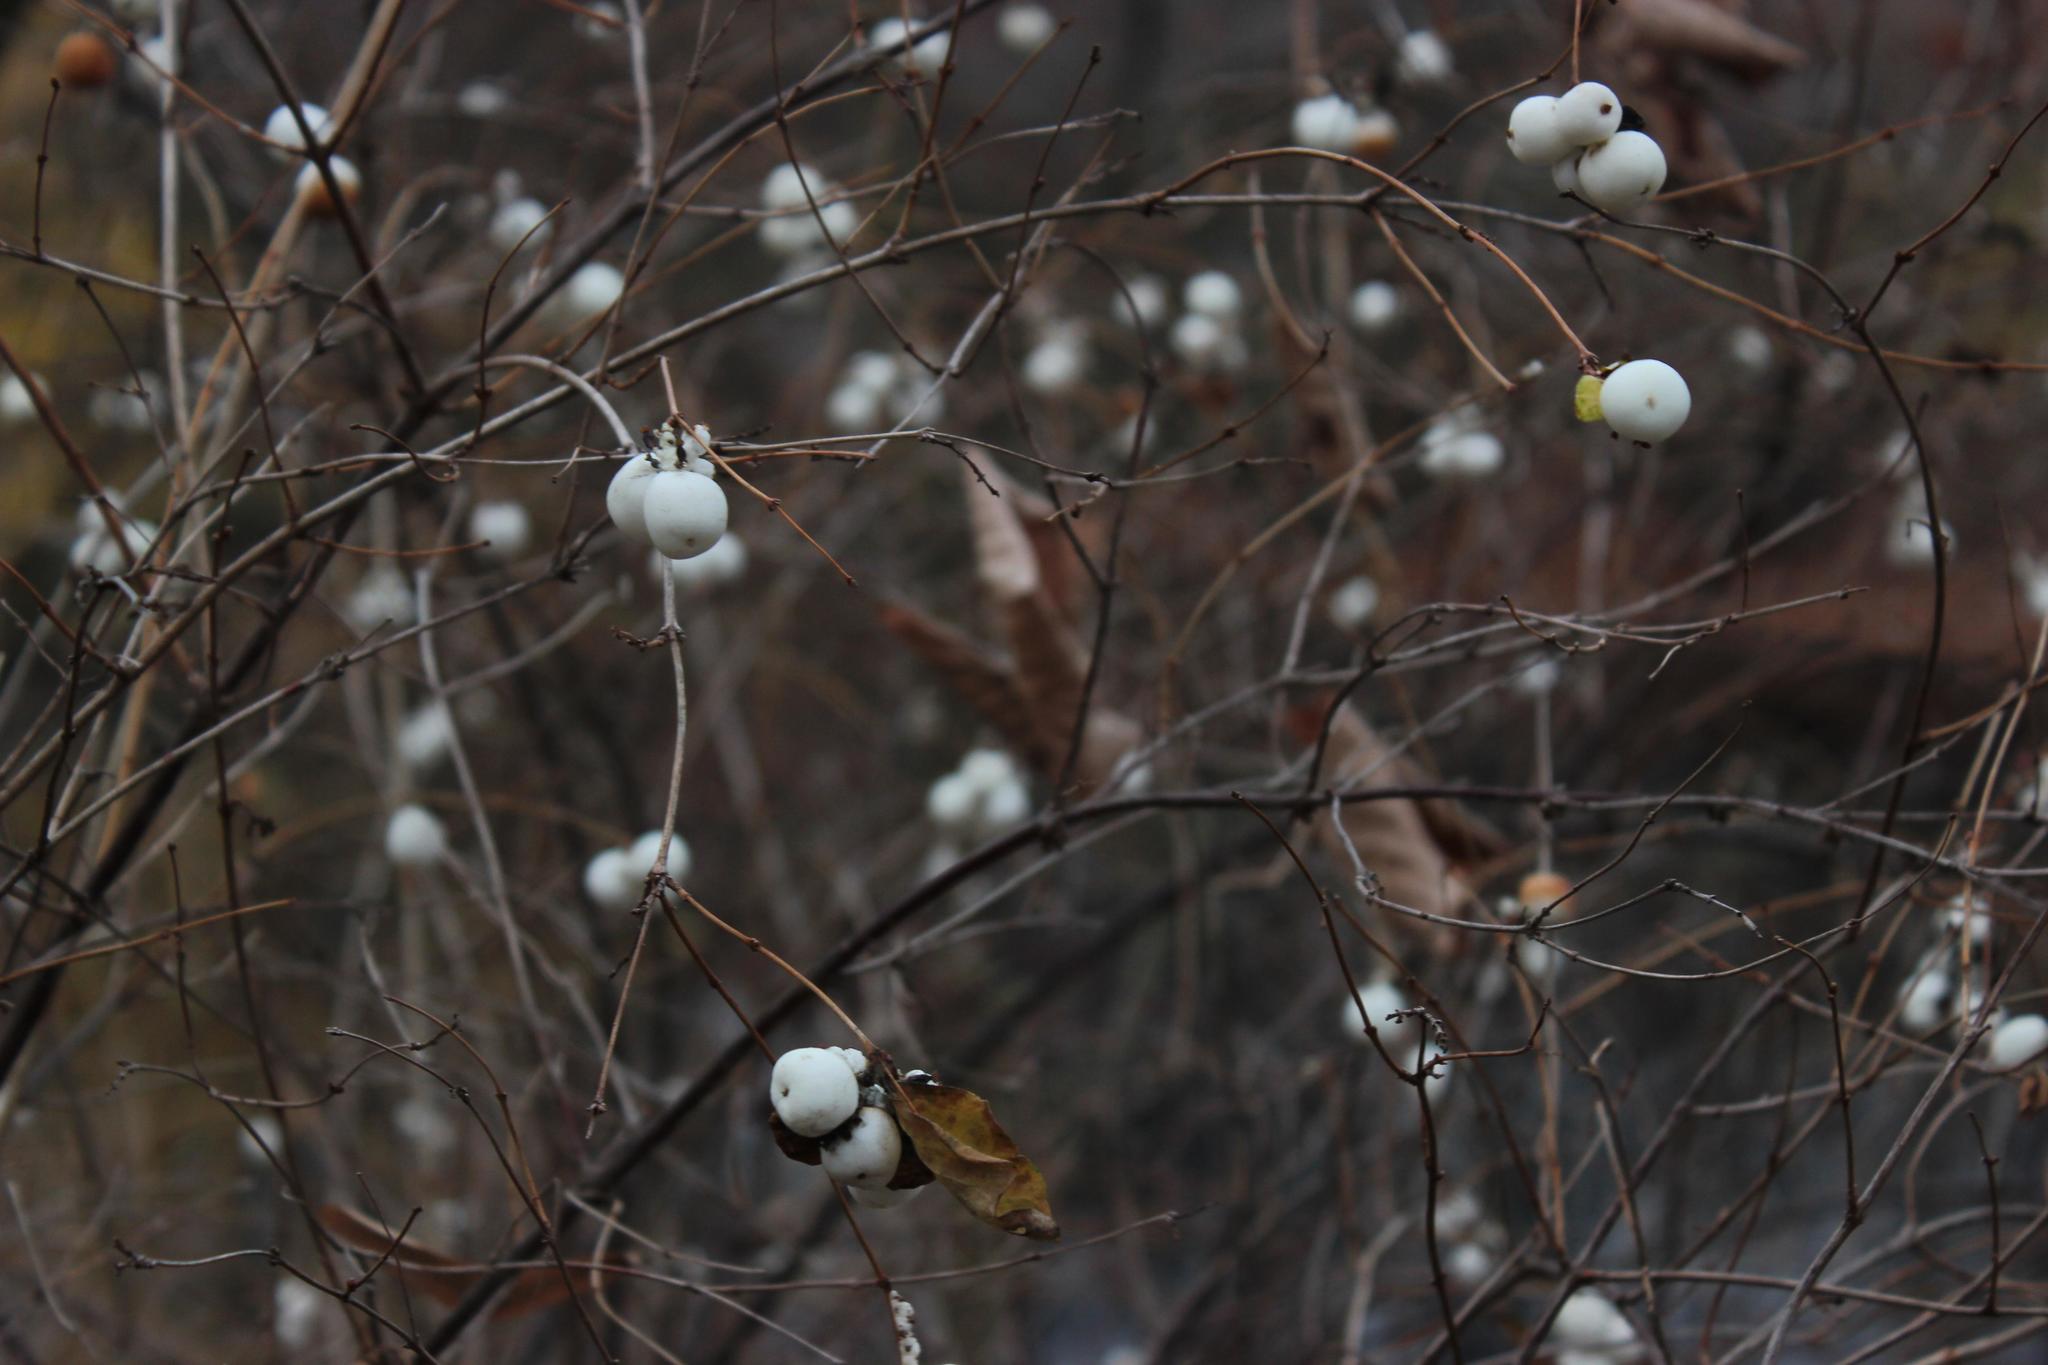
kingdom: Plantae
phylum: Tracheophyta
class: Magnoliopsida
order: Dipsacales
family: Caprifoliaceae
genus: Symphoricarpos
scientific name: Symphoricarpos albus
